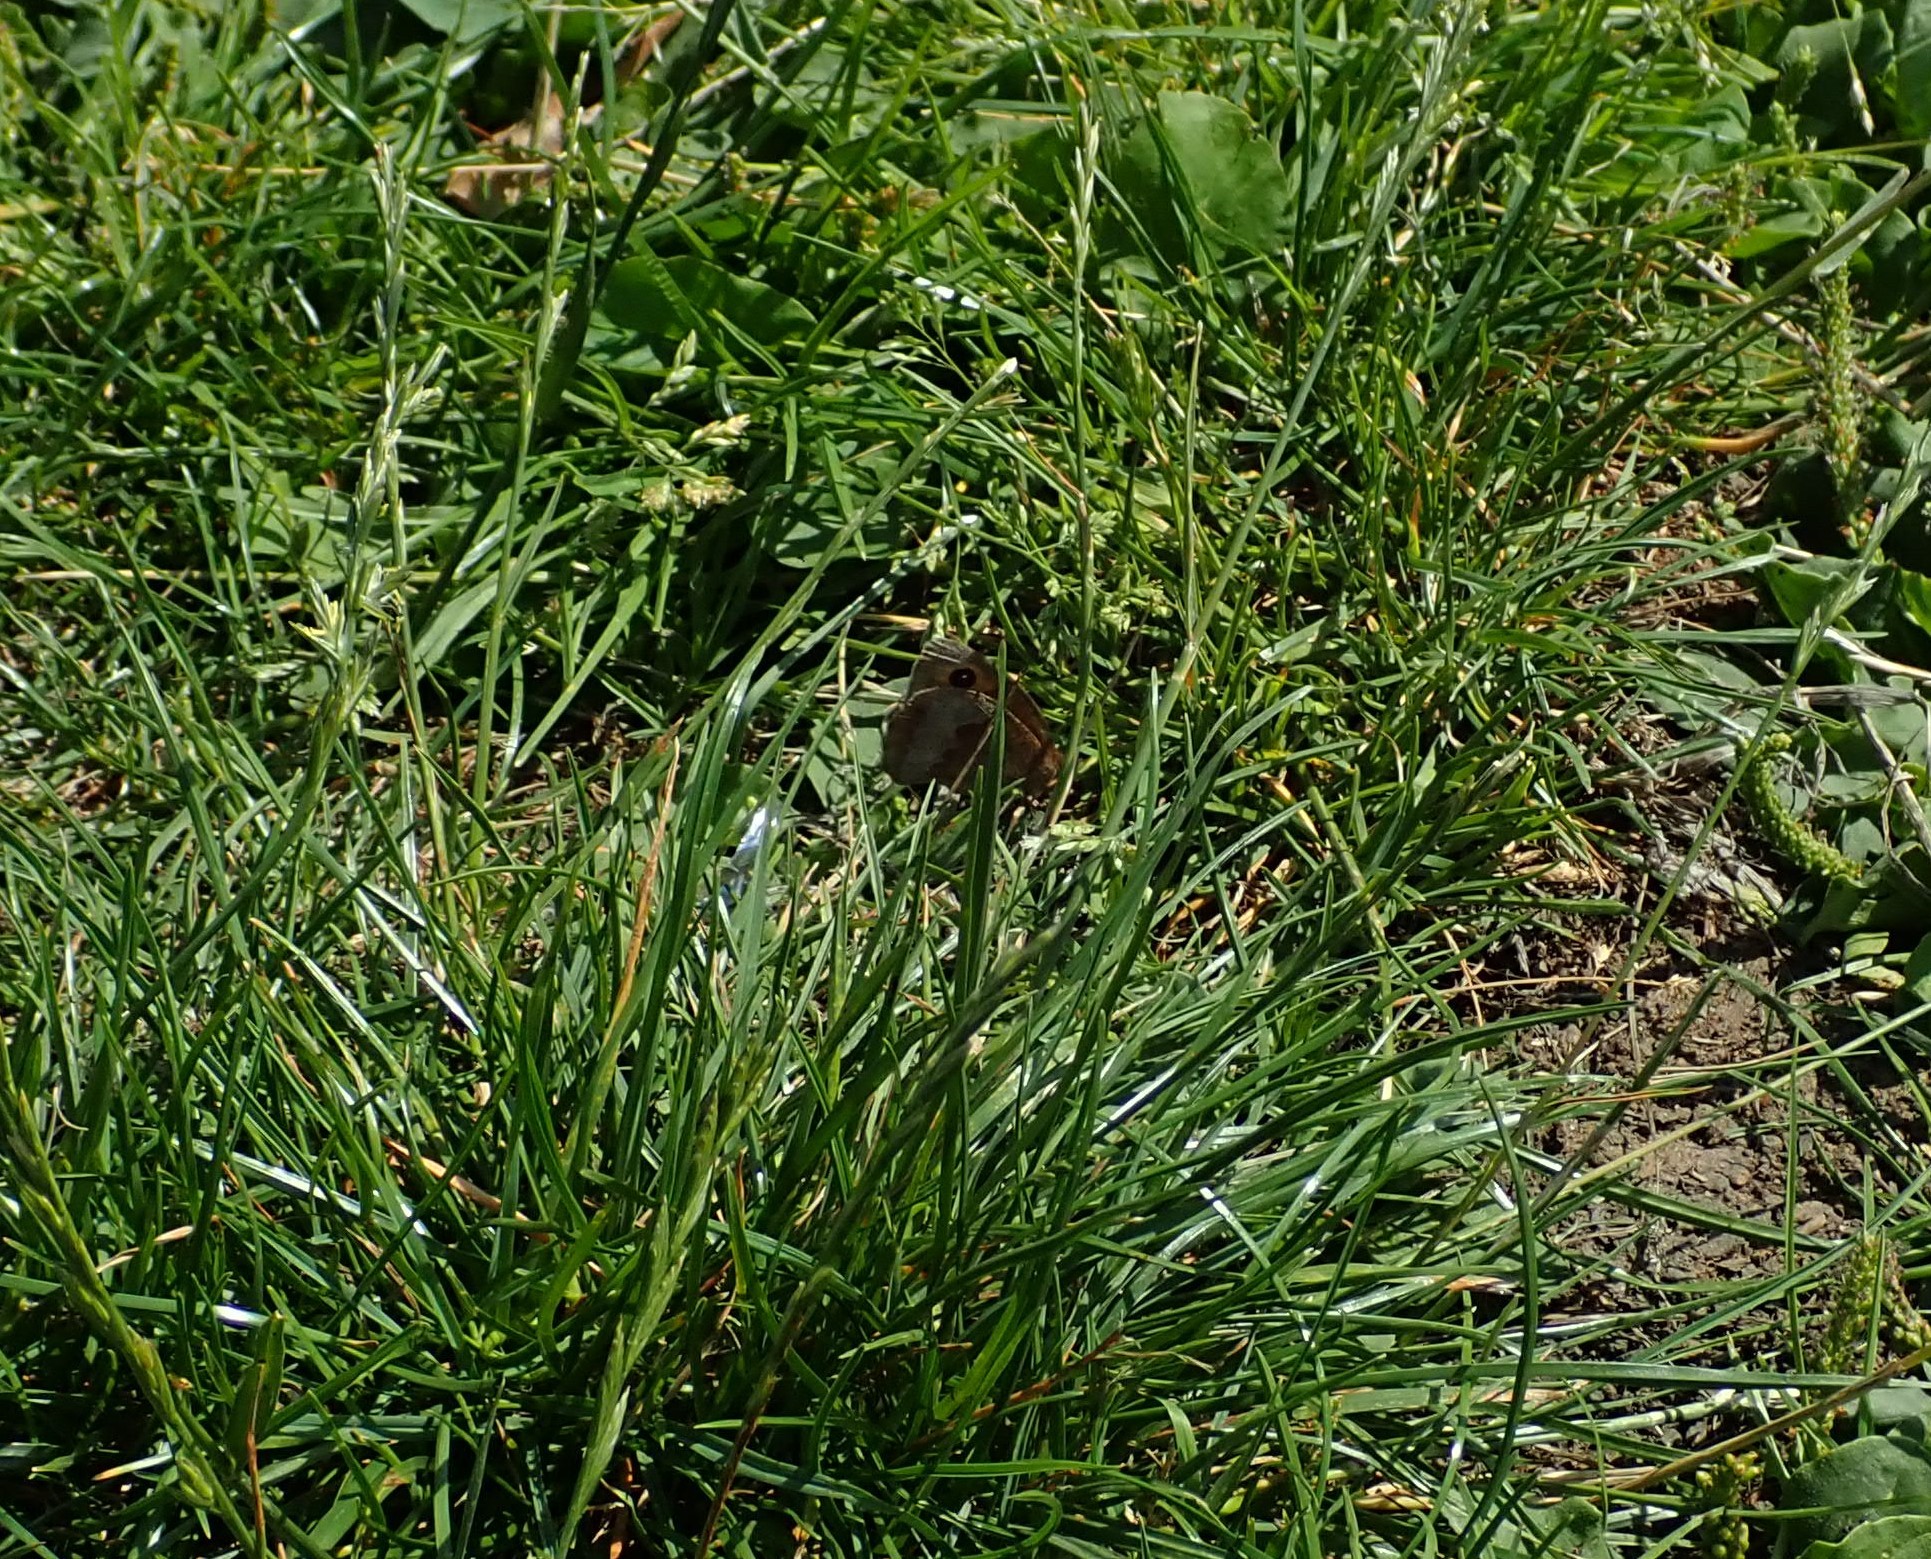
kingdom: Animalia
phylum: Arthropoda
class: Insecta
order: Lepidoptera
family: Nymphalidae
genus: Maniola
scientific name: Maniola jurtina
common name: Meadow brown
